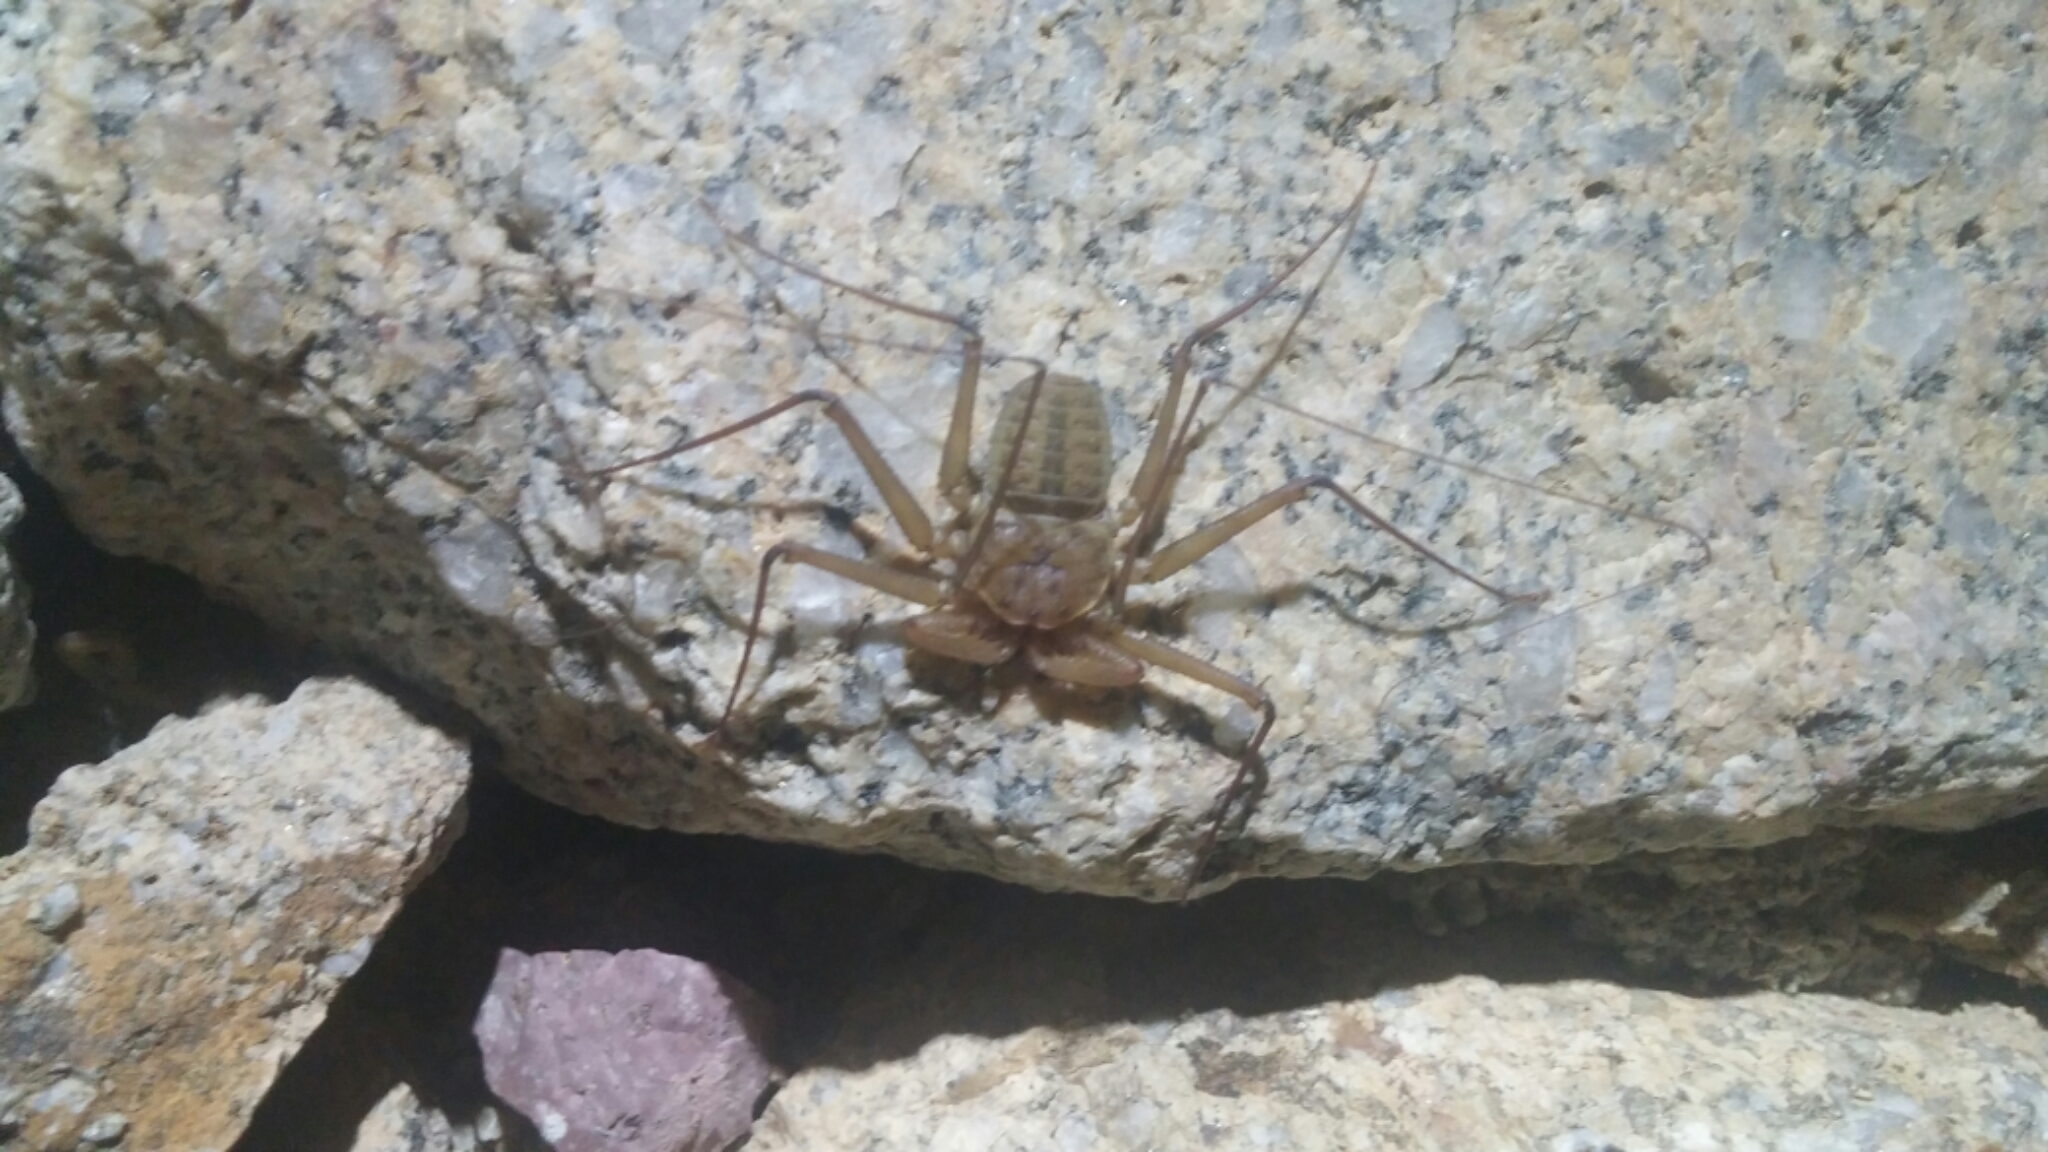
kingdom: Animalia
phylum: Arthropoda
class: Arachnida
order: Amblypygi
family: Phrynidae
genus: Phrynus
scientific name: Phrynus asperatipes
